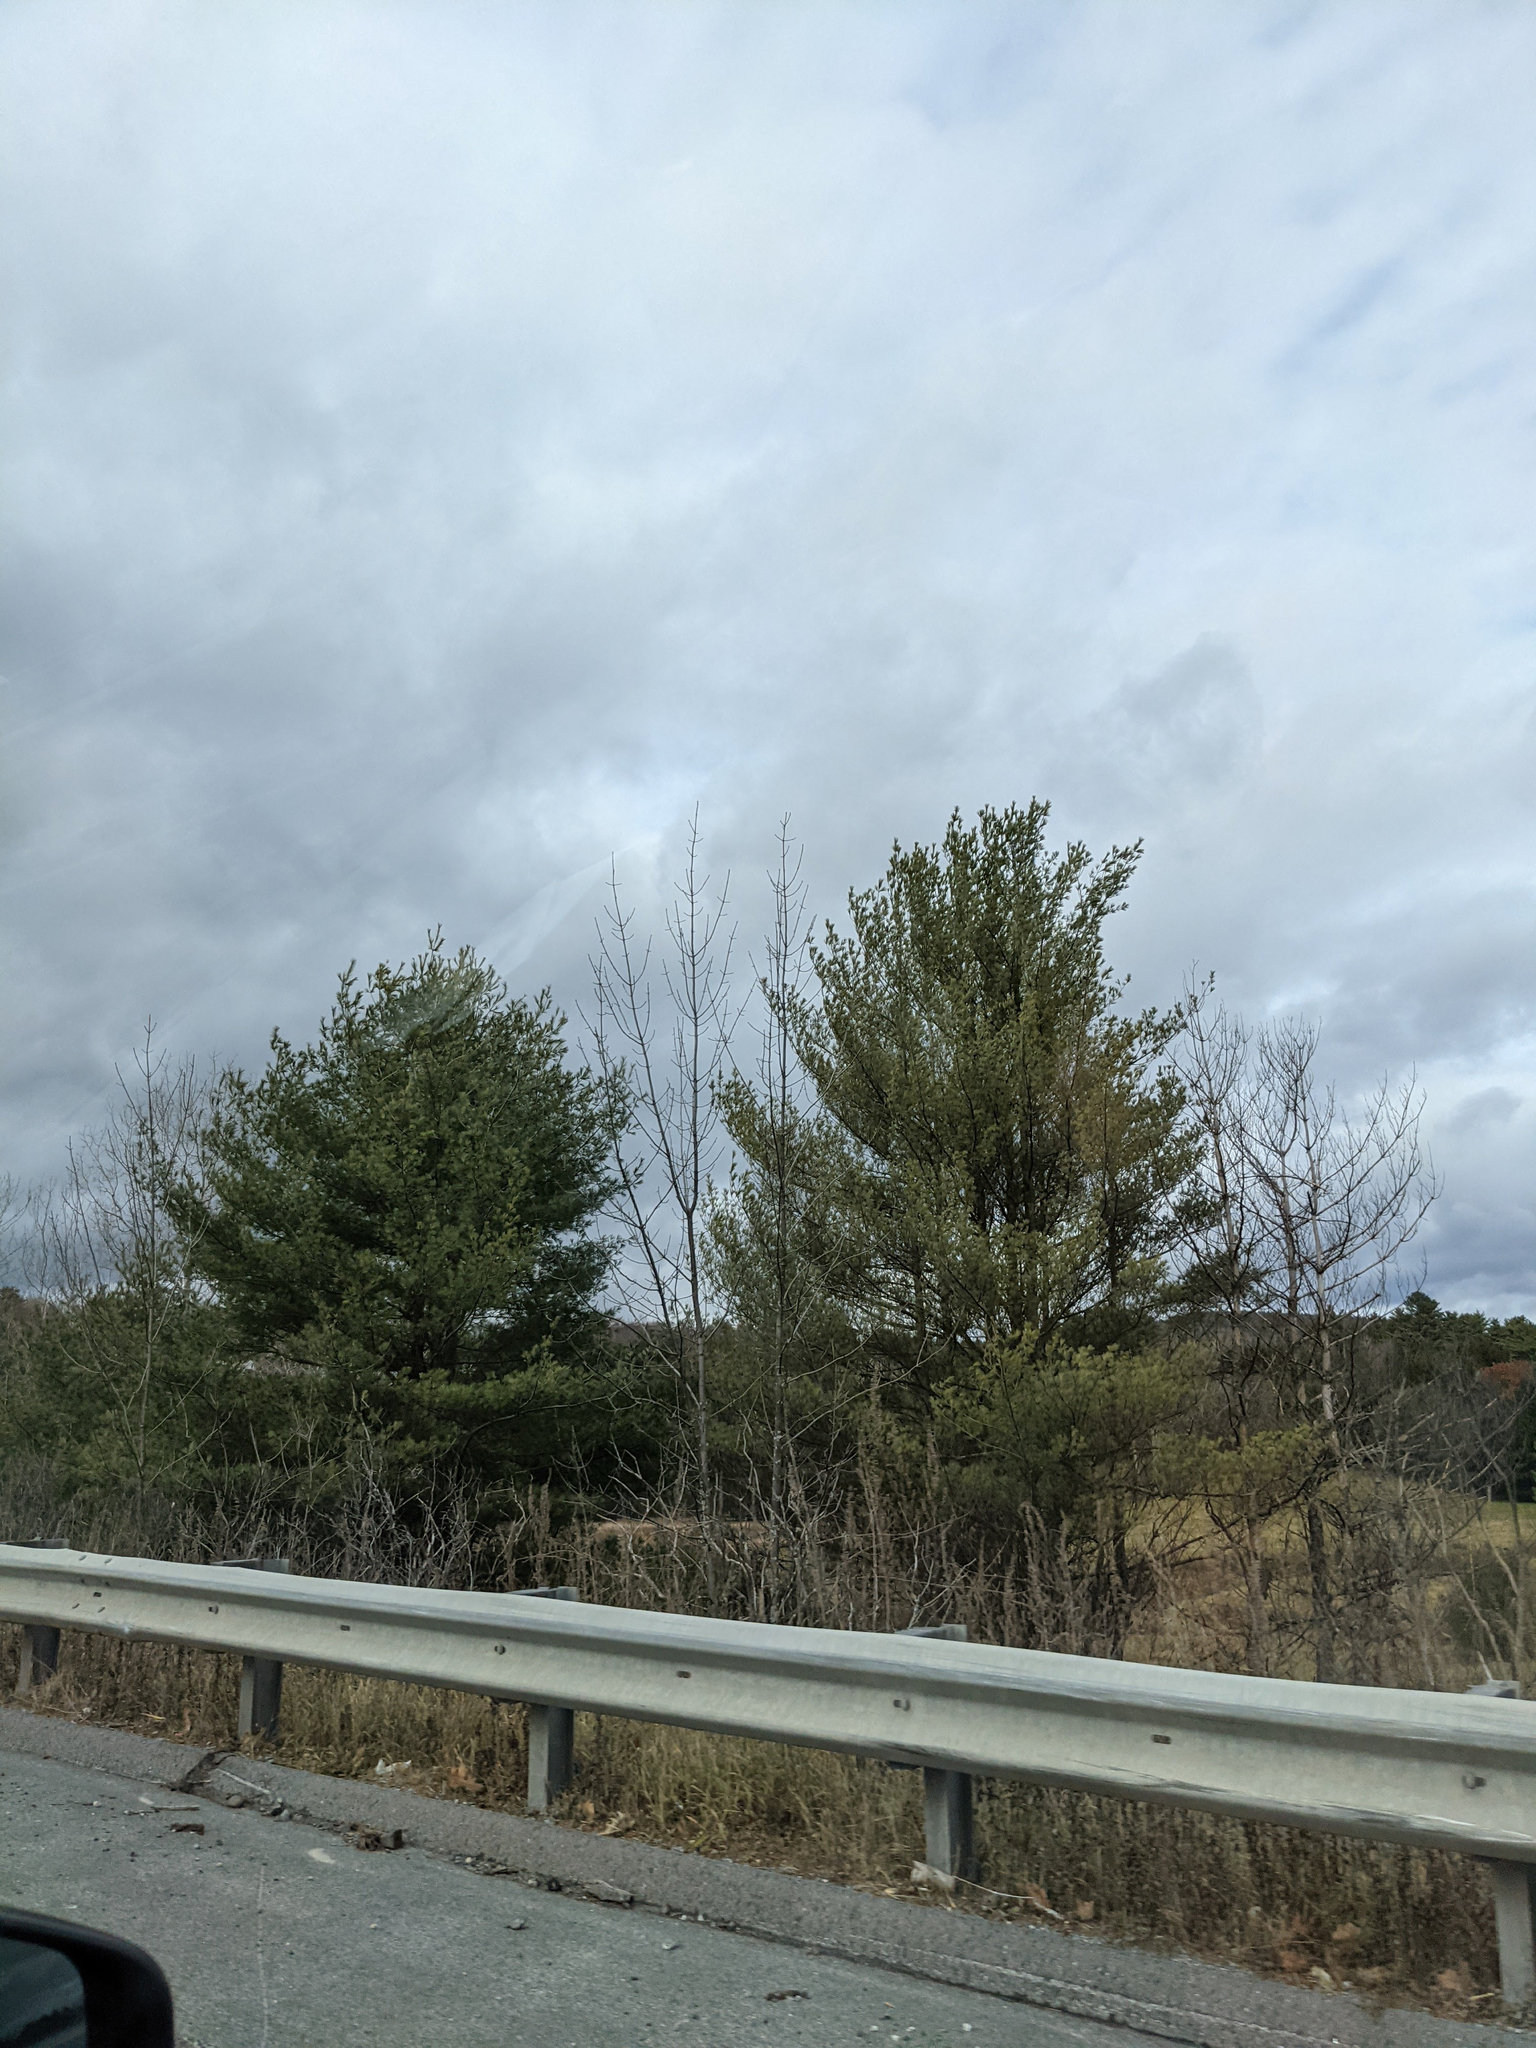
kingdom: Plantae
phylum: Tracheophyta
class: Pinopsida
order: Pinales
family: Pinaceae
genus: Pinus
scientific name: Pinus strobus
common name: Weymouth pine
